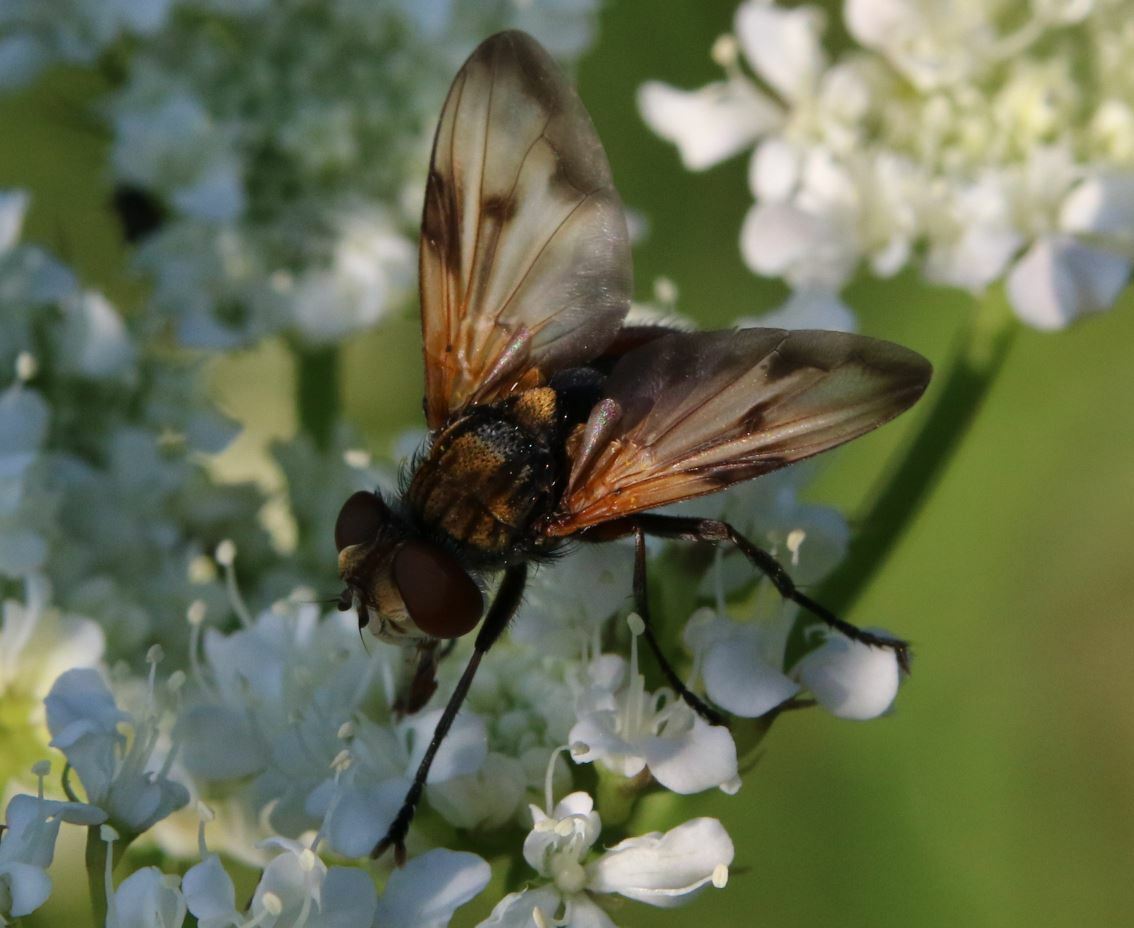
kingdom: Animalia
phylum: Arthropoda
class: Insecta
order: Diptera
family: Tachinidae
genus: Ectophasia
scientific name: Ectophasia crassipennis
